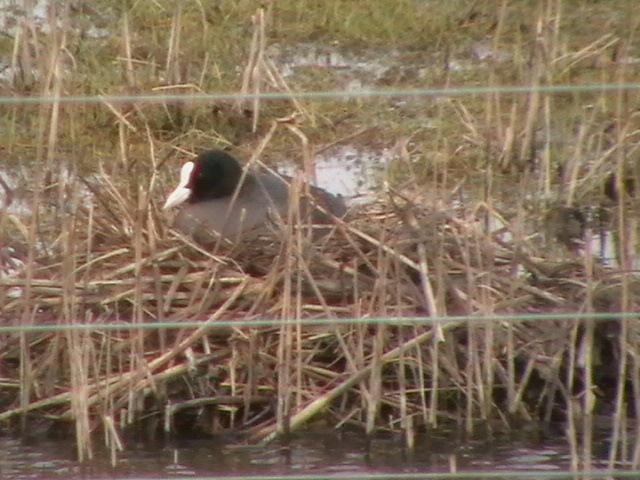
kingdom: Animalia
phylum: Chordata
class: Aves
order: Gruiformes
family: Rallidae
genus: Fulica
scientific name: Fulica atra
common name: Eurasian coot
